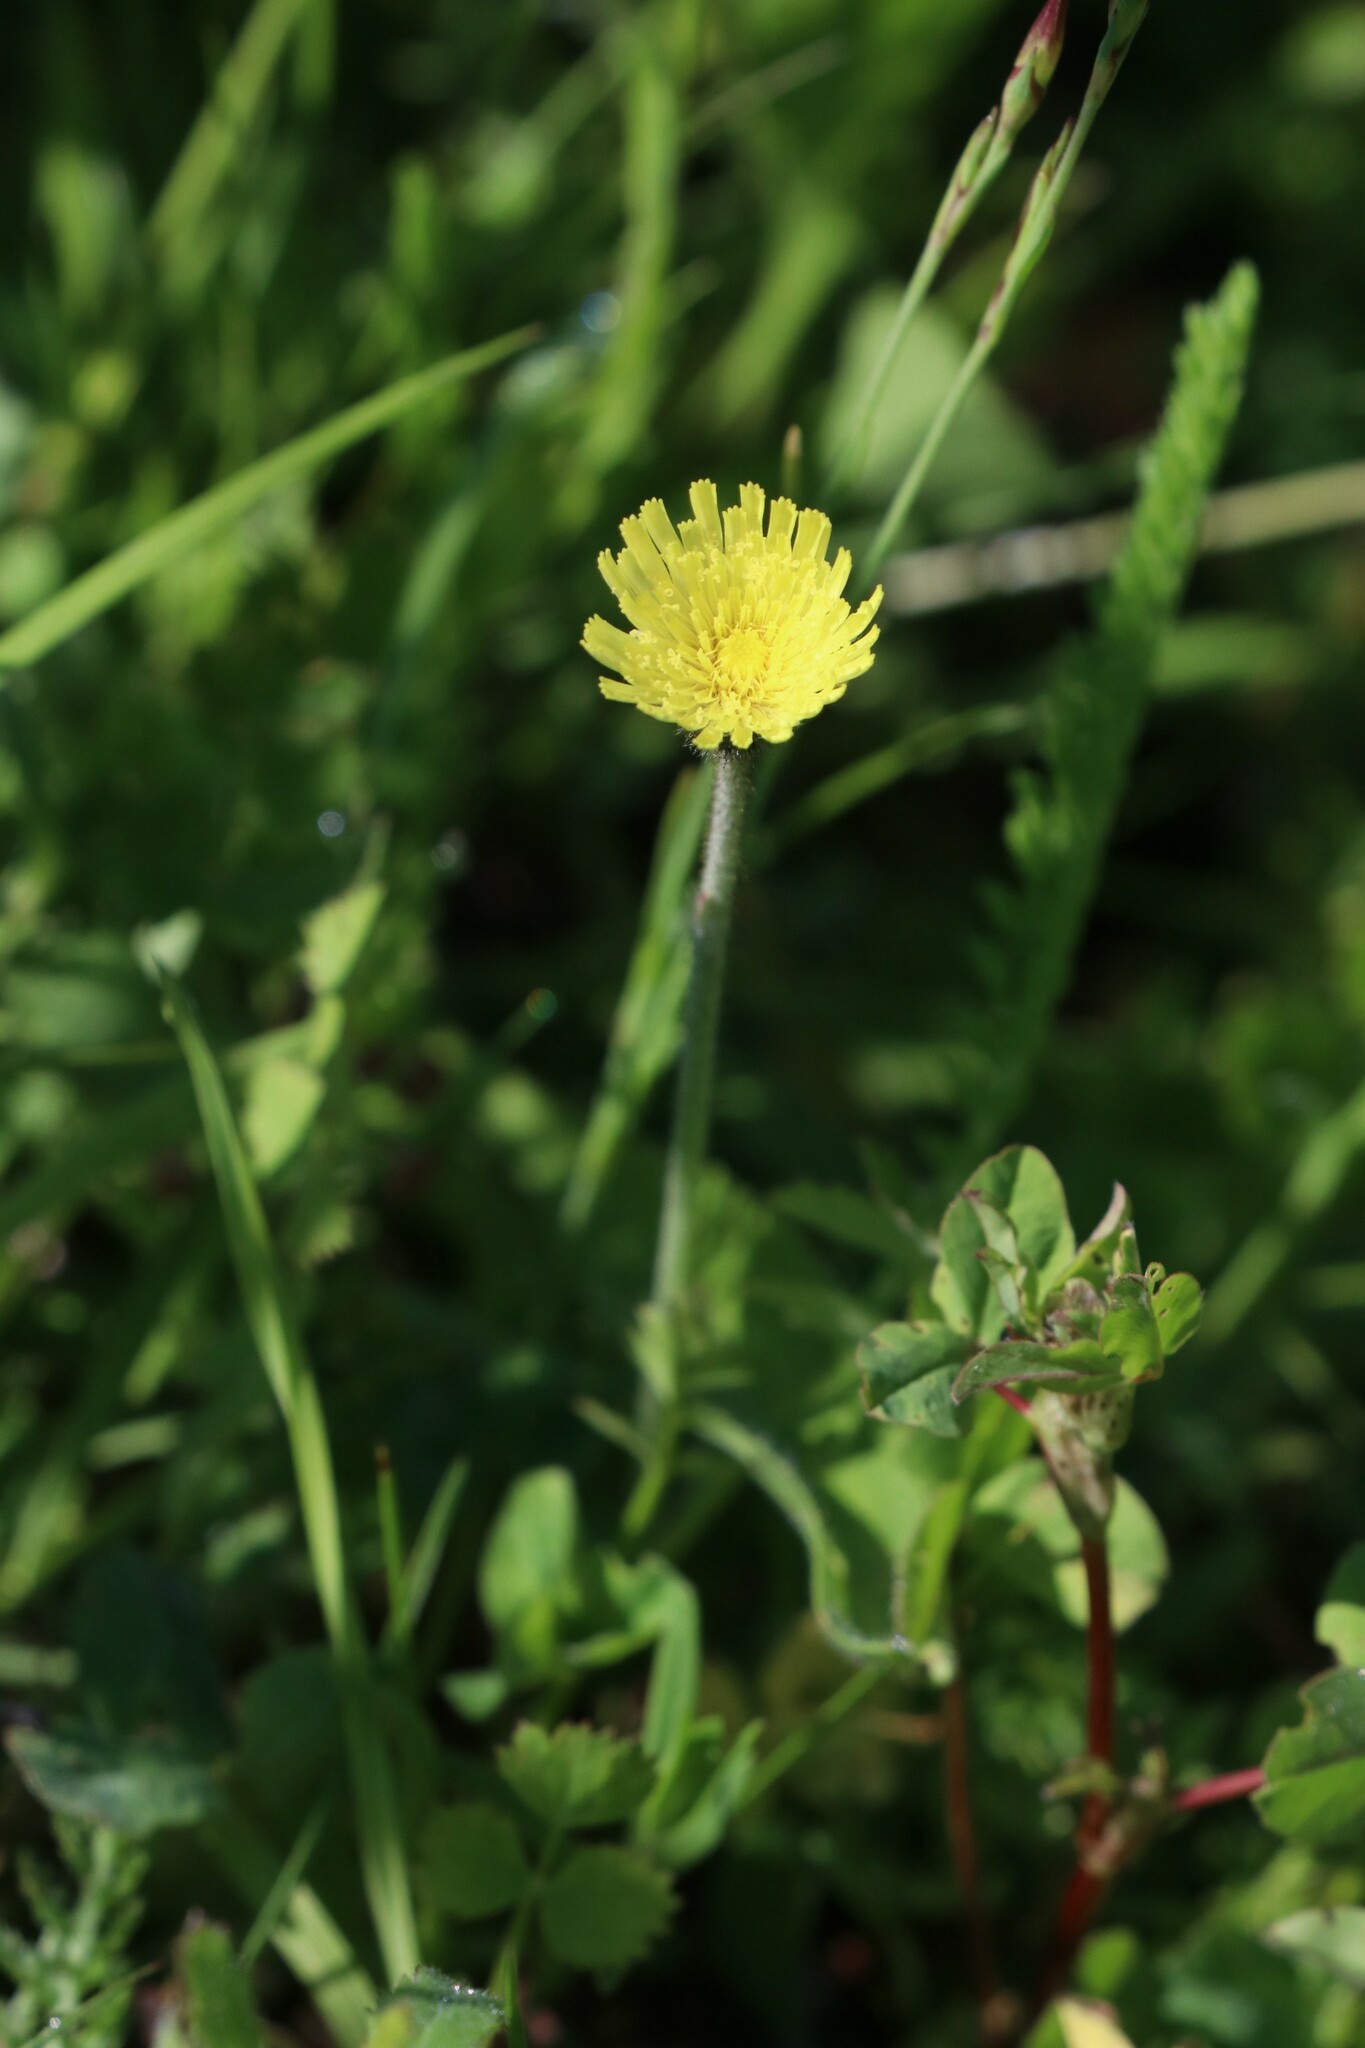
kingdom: Plantae
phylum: Tracheophyta
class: Magnoliopsida
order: Asterales
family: Asteraceae
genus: Pilosella
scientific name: Pilosella officinarum
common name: Mouse-ear hawkweed
